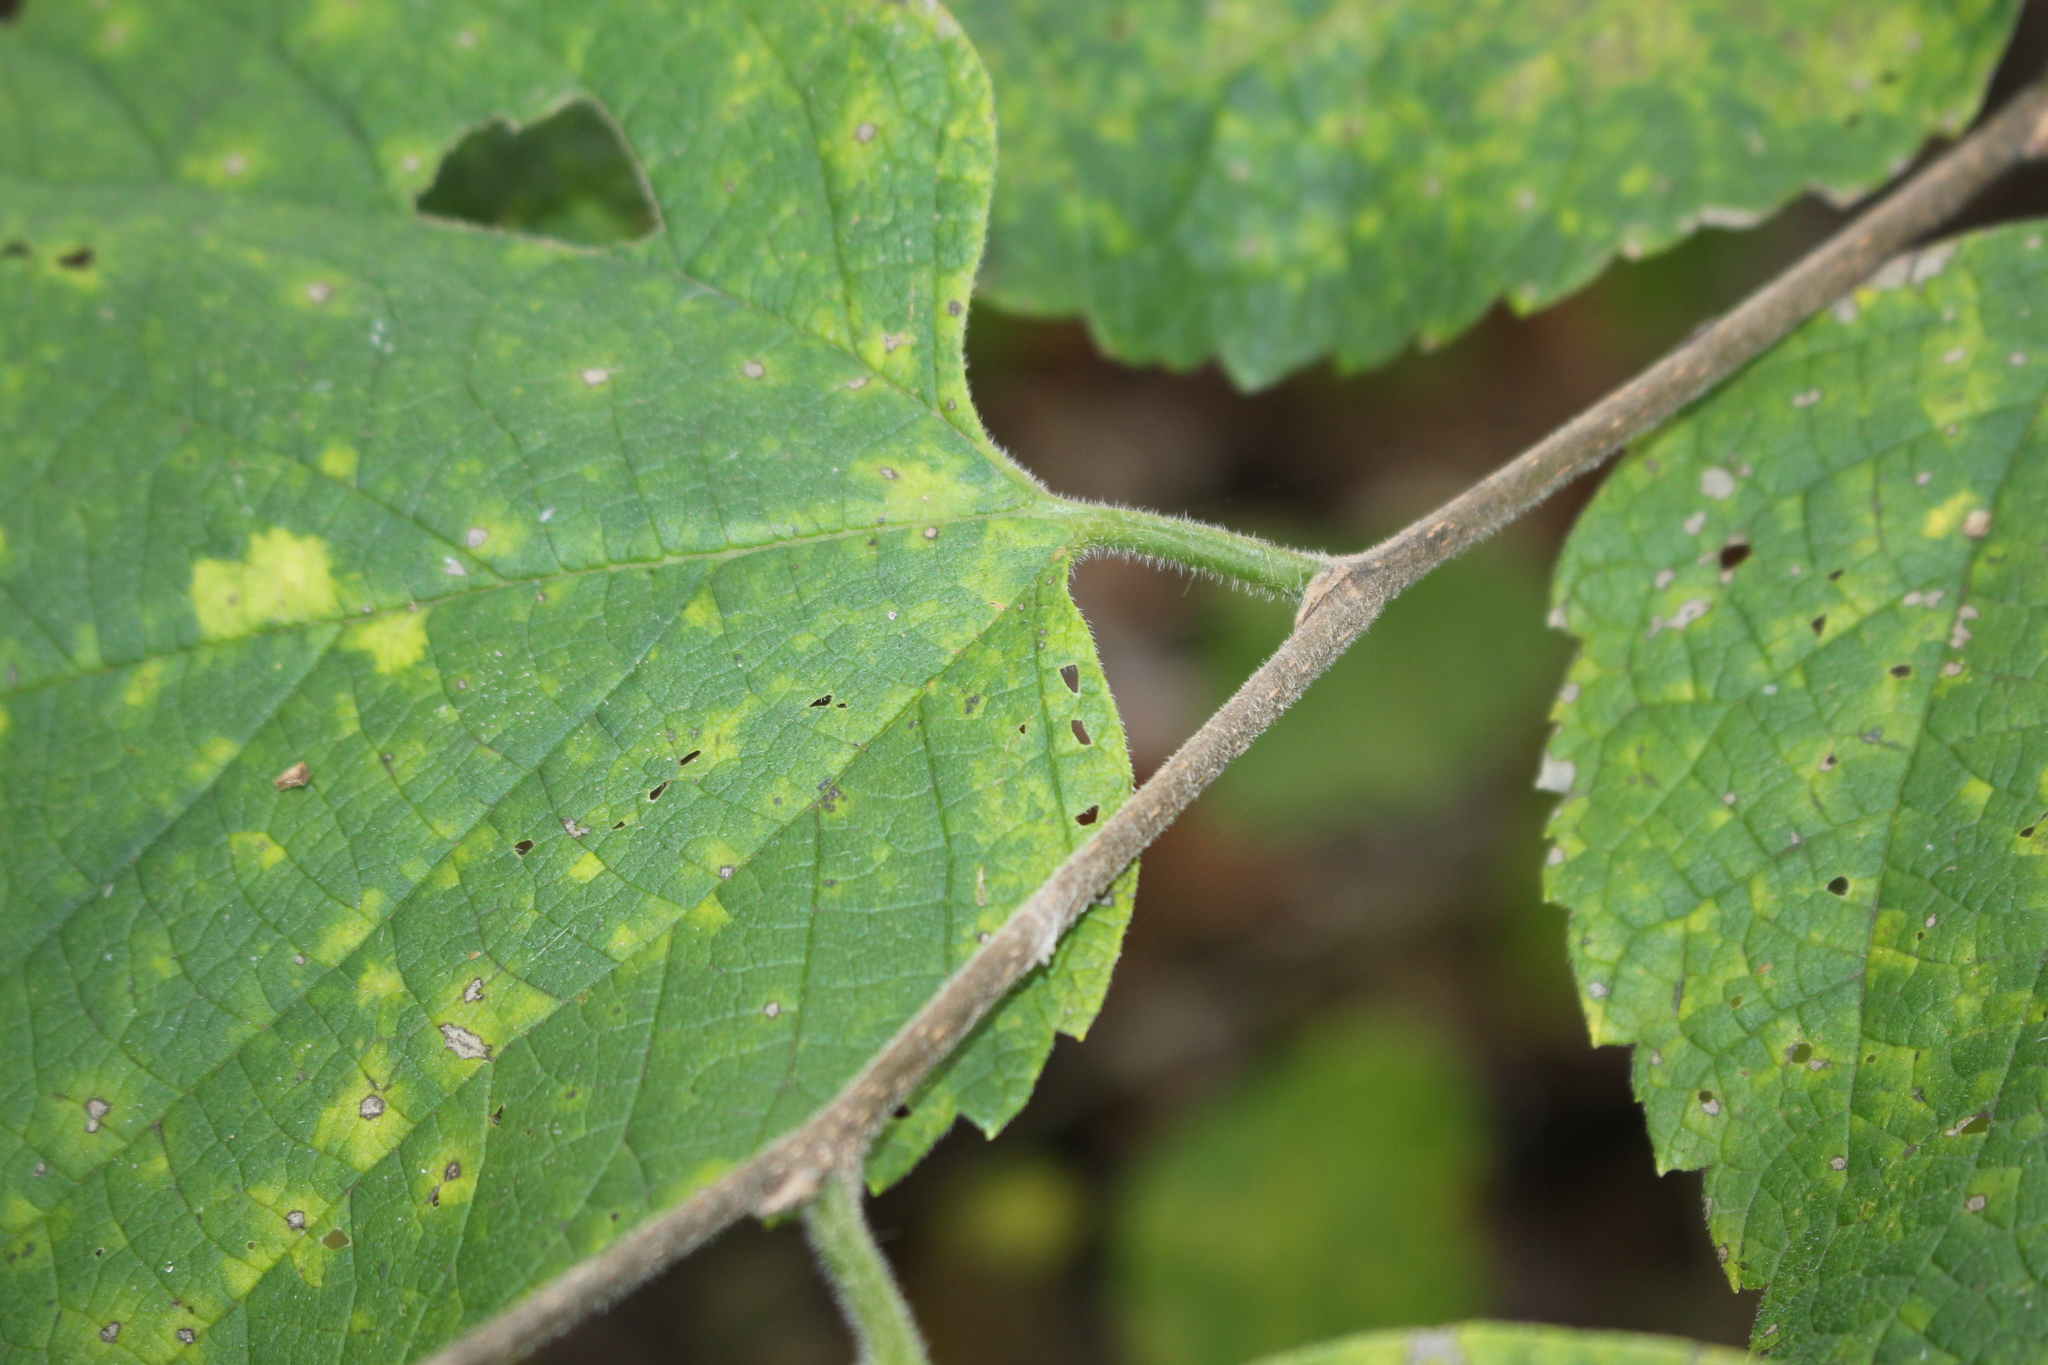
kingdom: Plantae
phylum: Tracheophyta
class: Magnoliopsida
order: Rosales
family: Cannabaceae
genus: Celtis
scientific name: Celtis occidentalis
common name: Common hackberry
